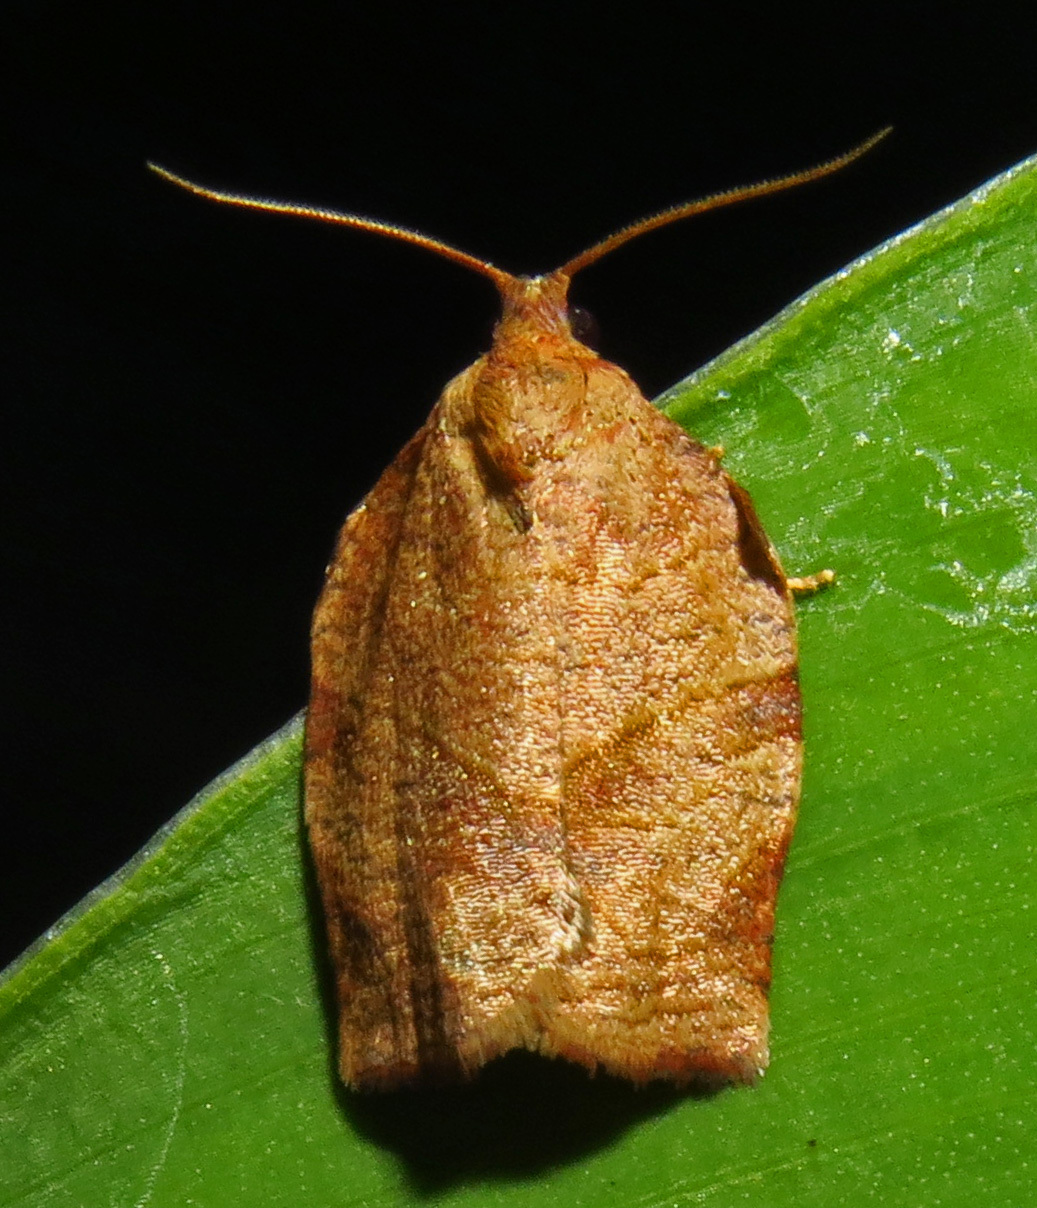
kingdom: Animalia
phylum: Arthropoda
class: Insecta
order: Lepidoptera
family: Tortricidae
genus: Choristoneura
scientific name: Choristoneura rosaceana
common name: Oblique-banded leafroller moth
